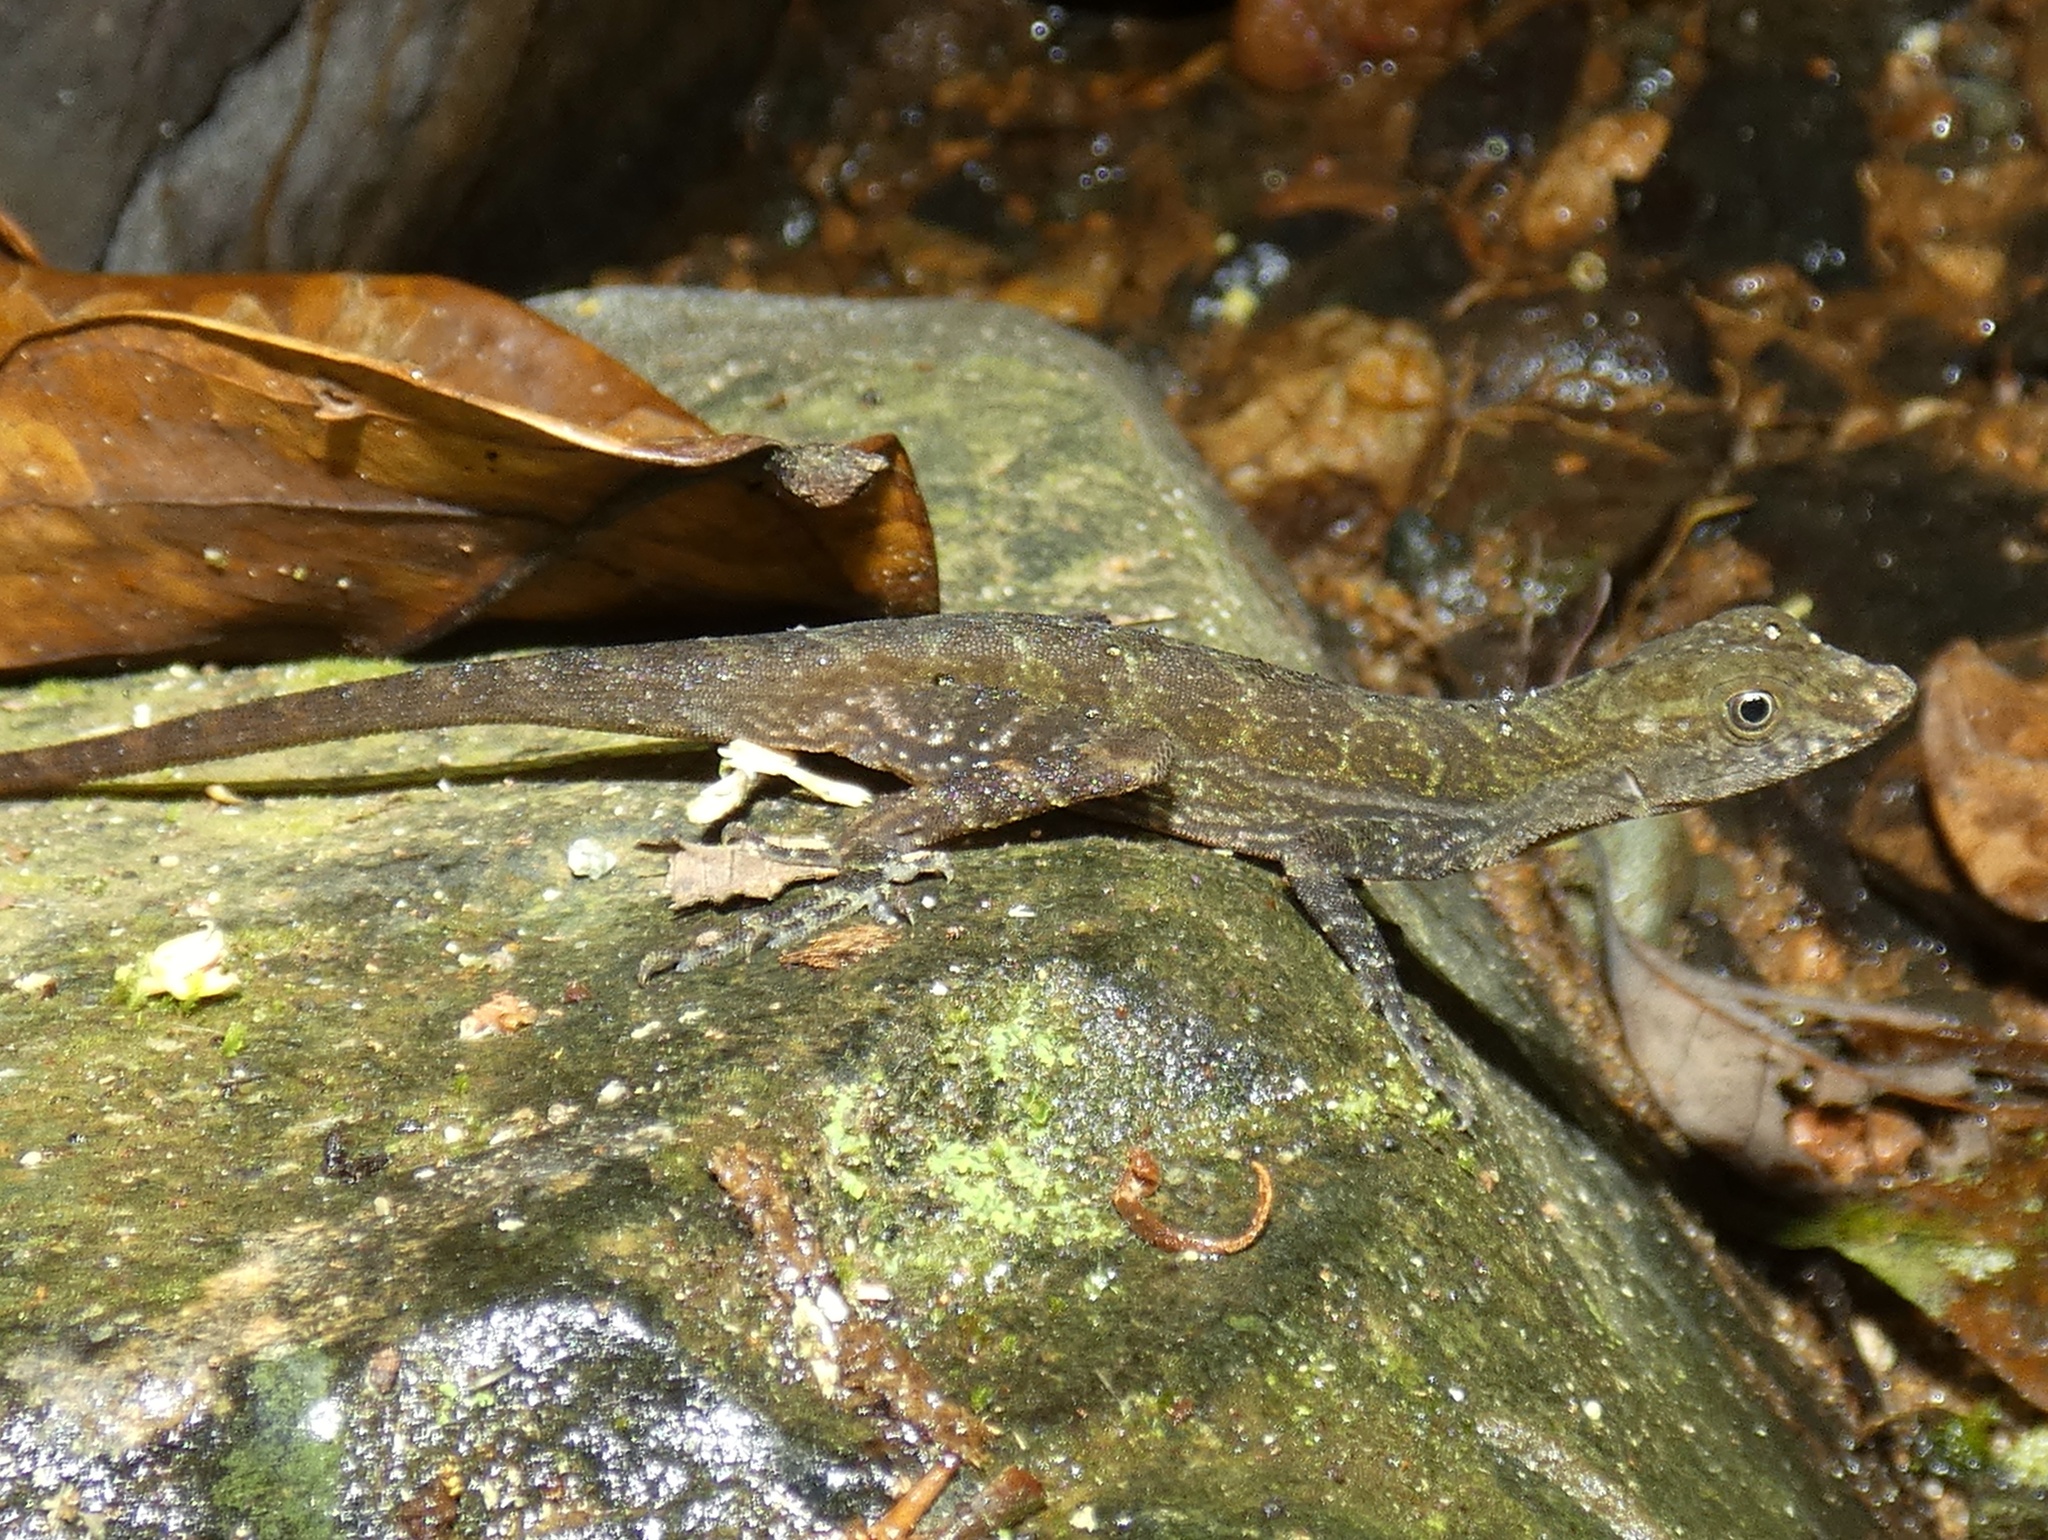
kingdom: Animalia
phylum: Chordata
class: Squamata
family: Dactyloidae
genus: Anolis
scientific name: Anolis poecilopus
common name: Dappled anole
